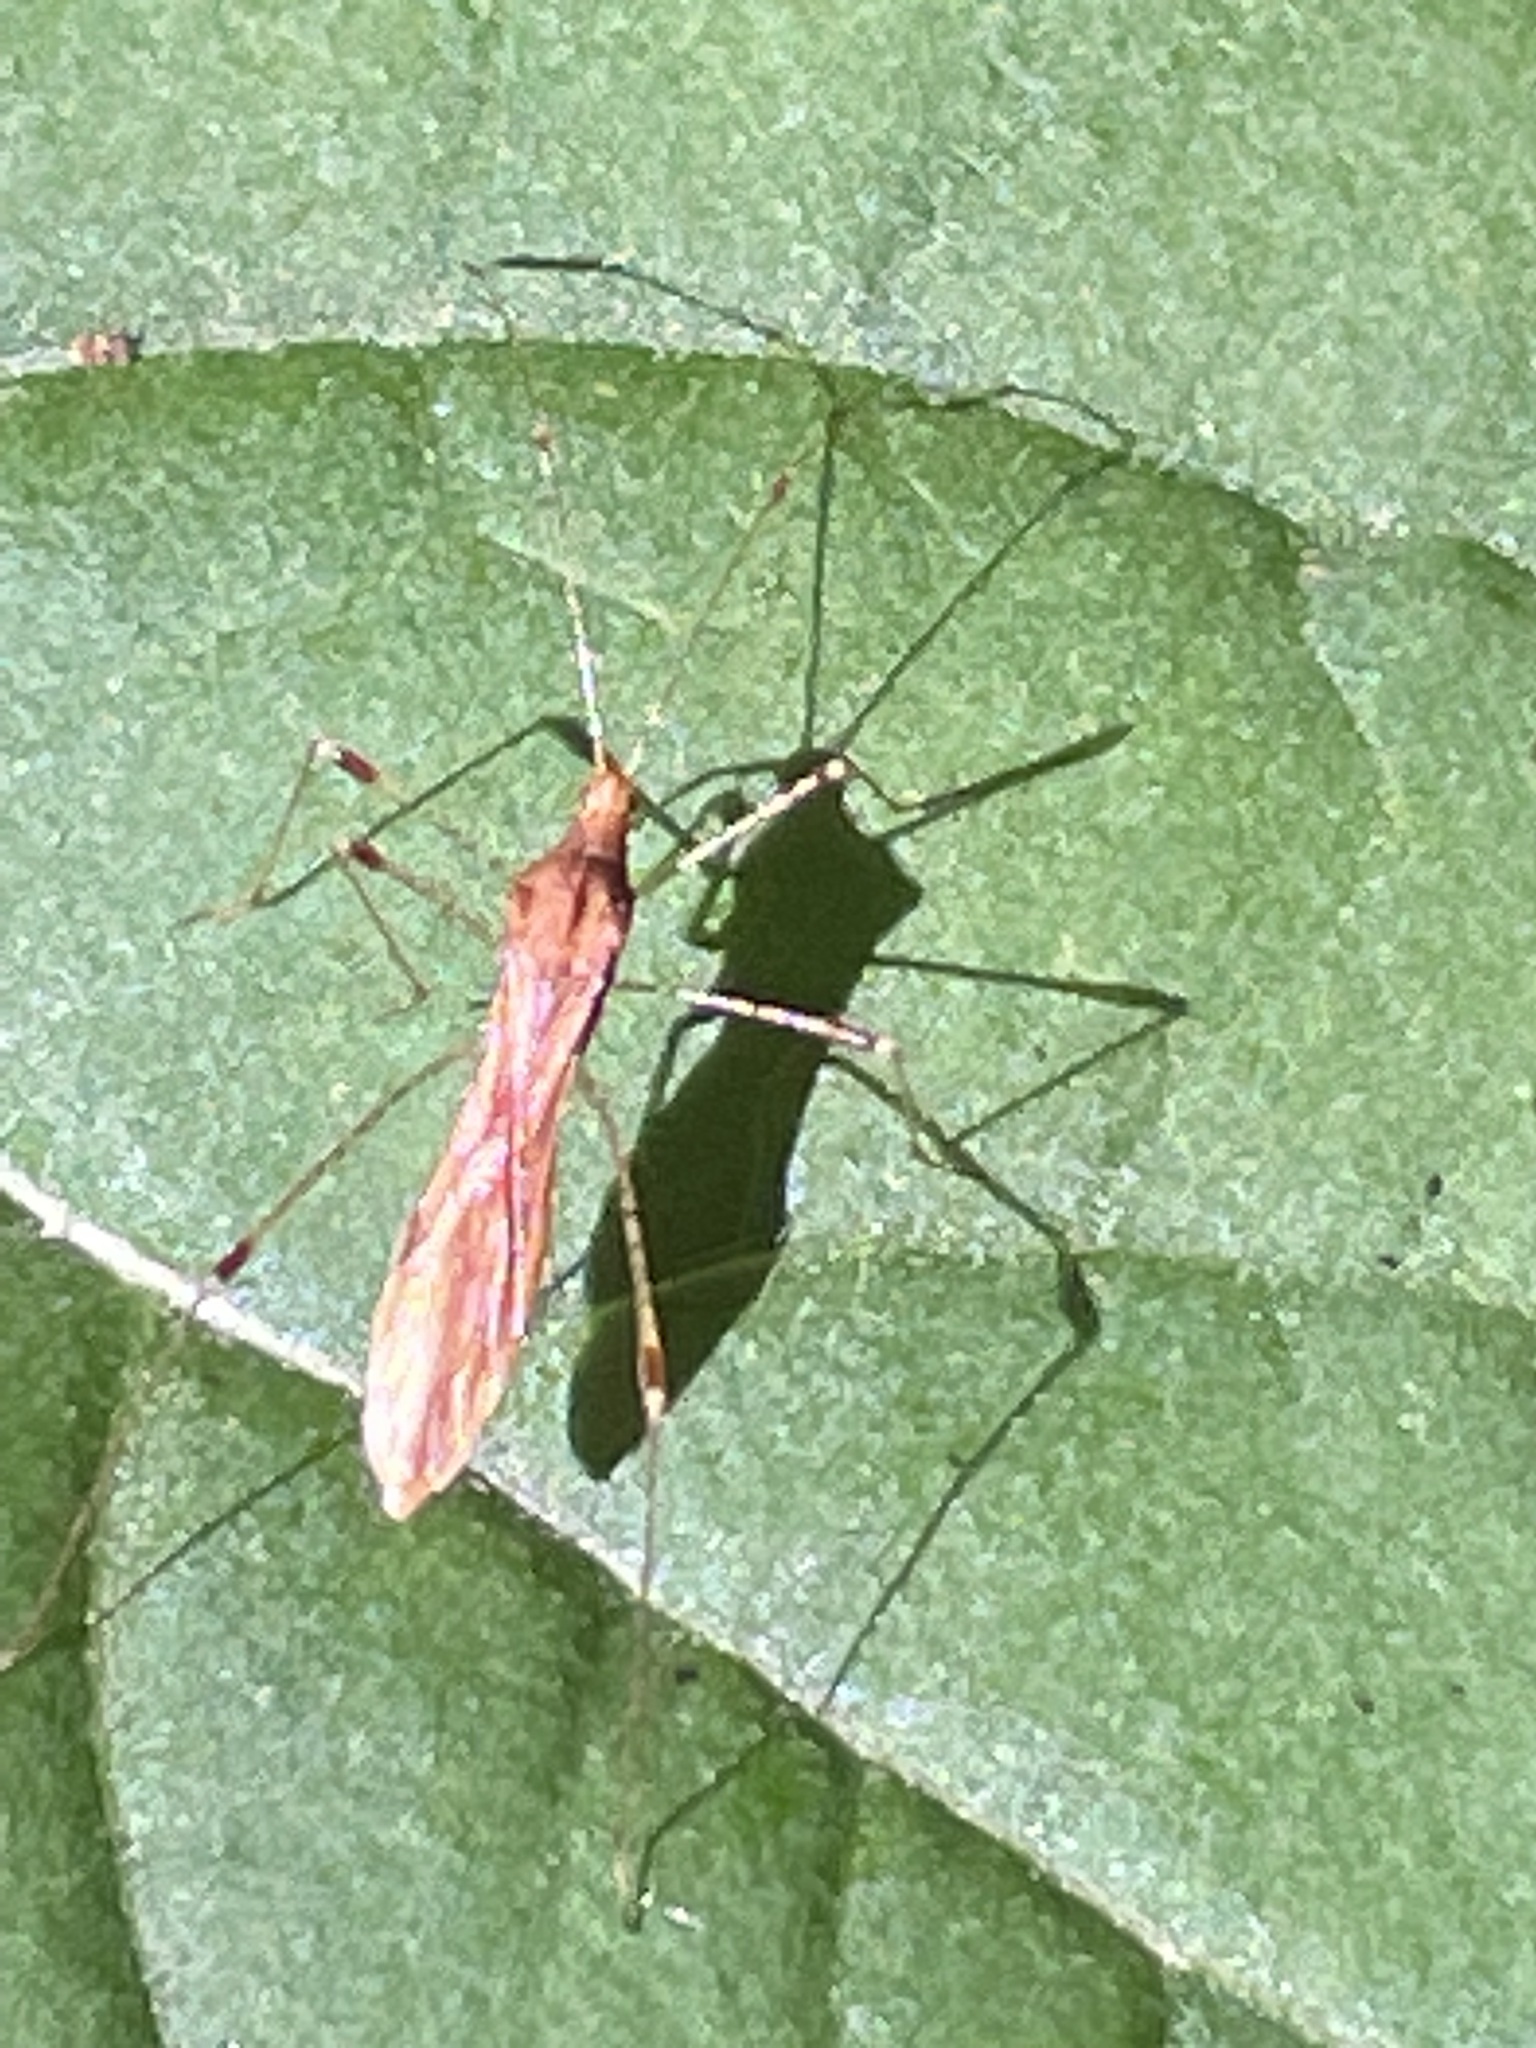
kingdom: Animalia
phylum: Arthropoda
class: Insecta
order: Hemiptera
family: Berytidae
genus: Metatropis
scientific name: Metatropis rufescens
